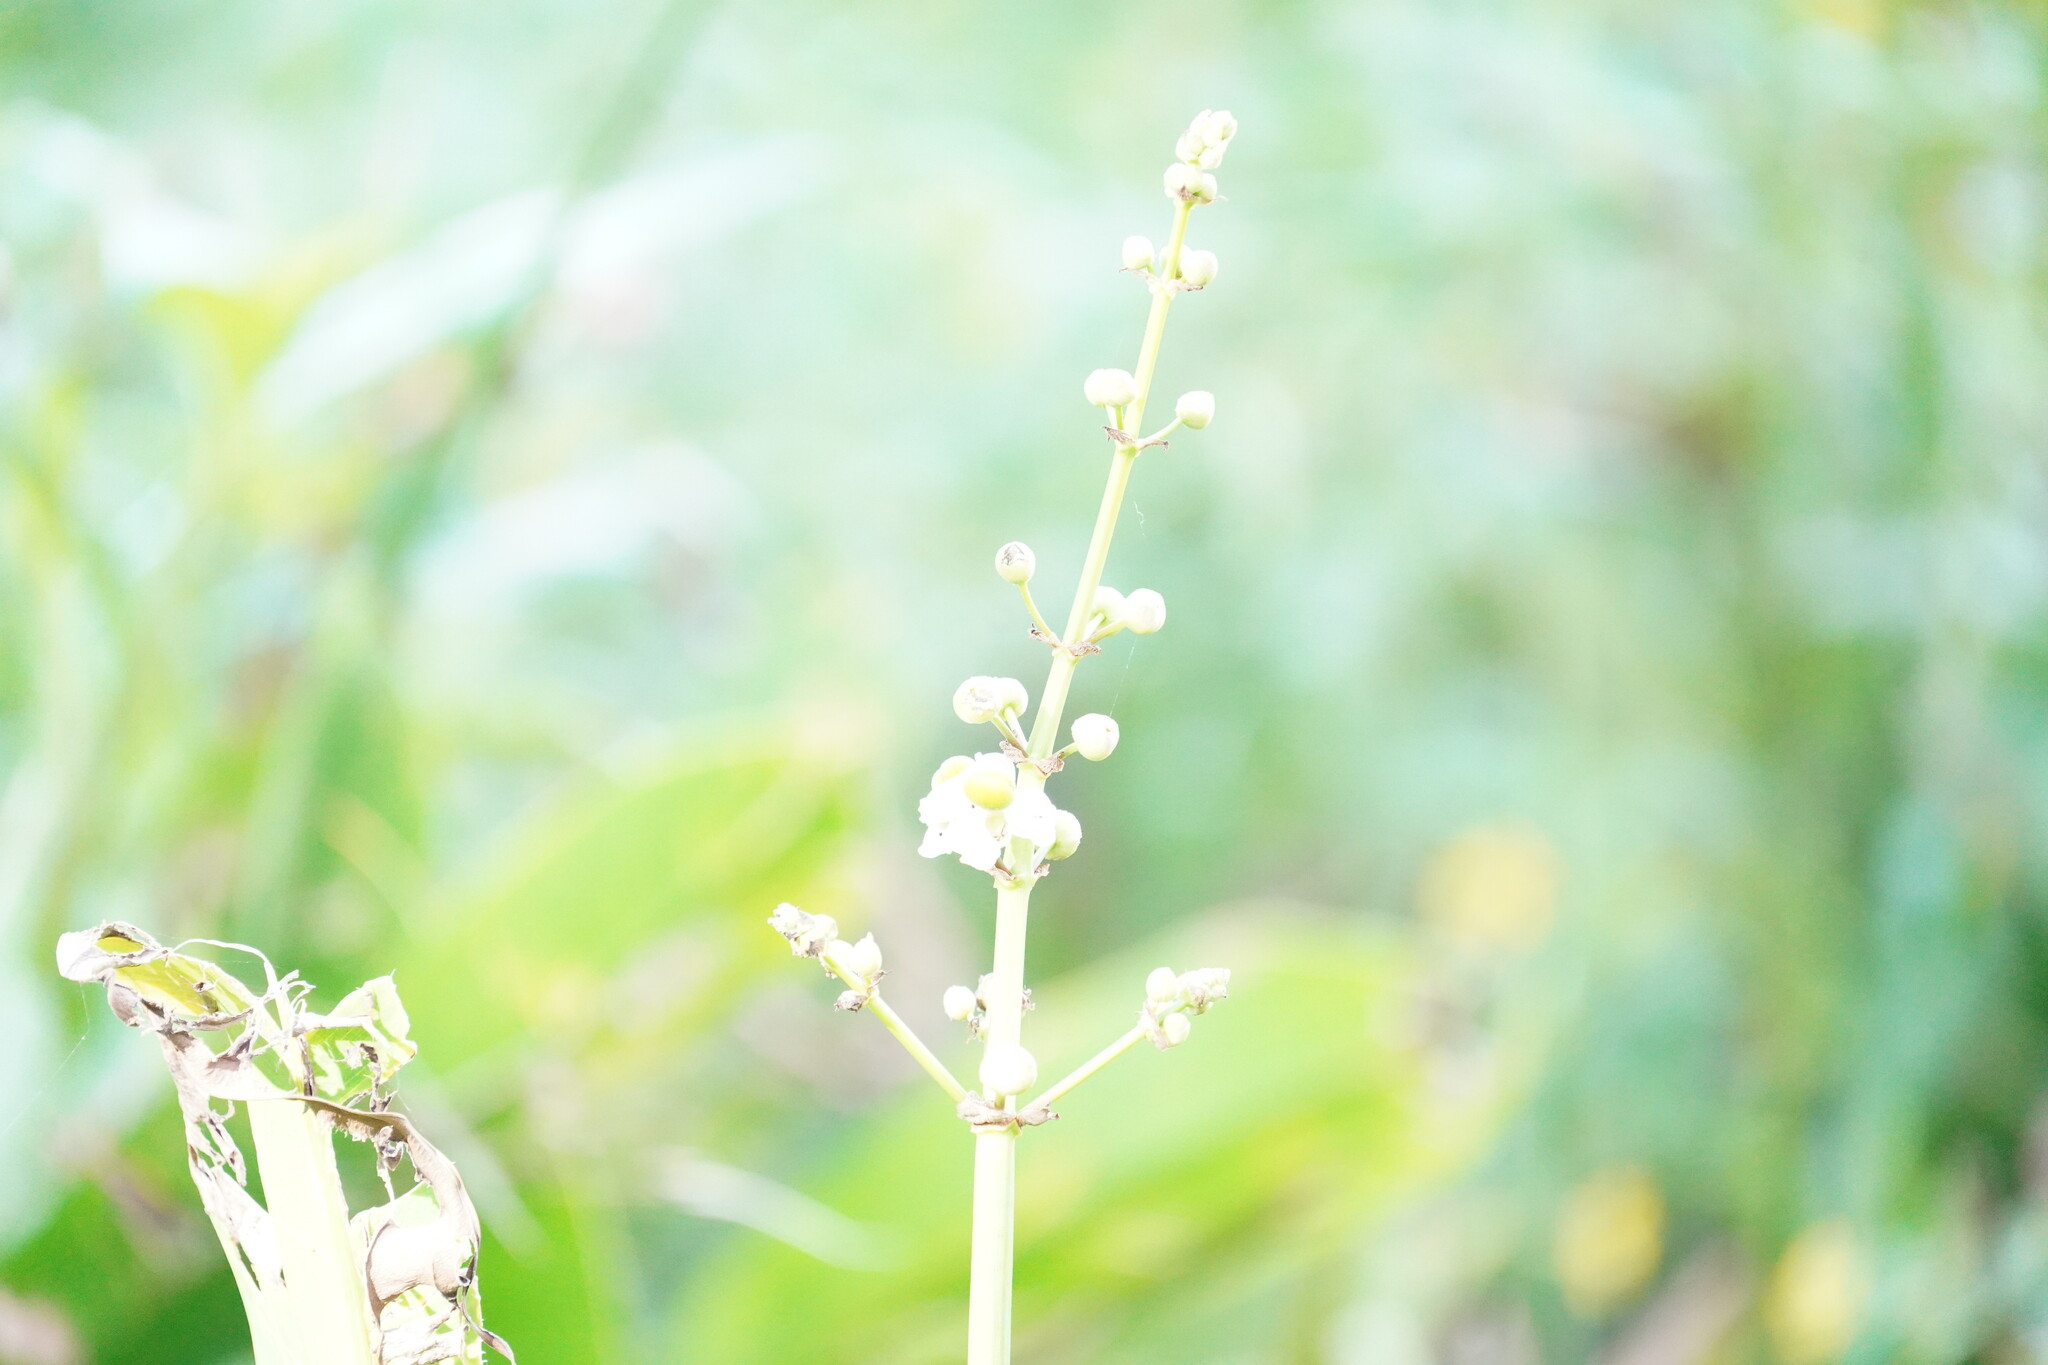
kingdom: Plantae
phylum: Tracheophyta
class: Liliopsida
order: Alismatales
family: Alismataceae
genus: Sagittaria
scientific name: Sagittaria lancifolia
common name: Lance-leaf arrowhead
